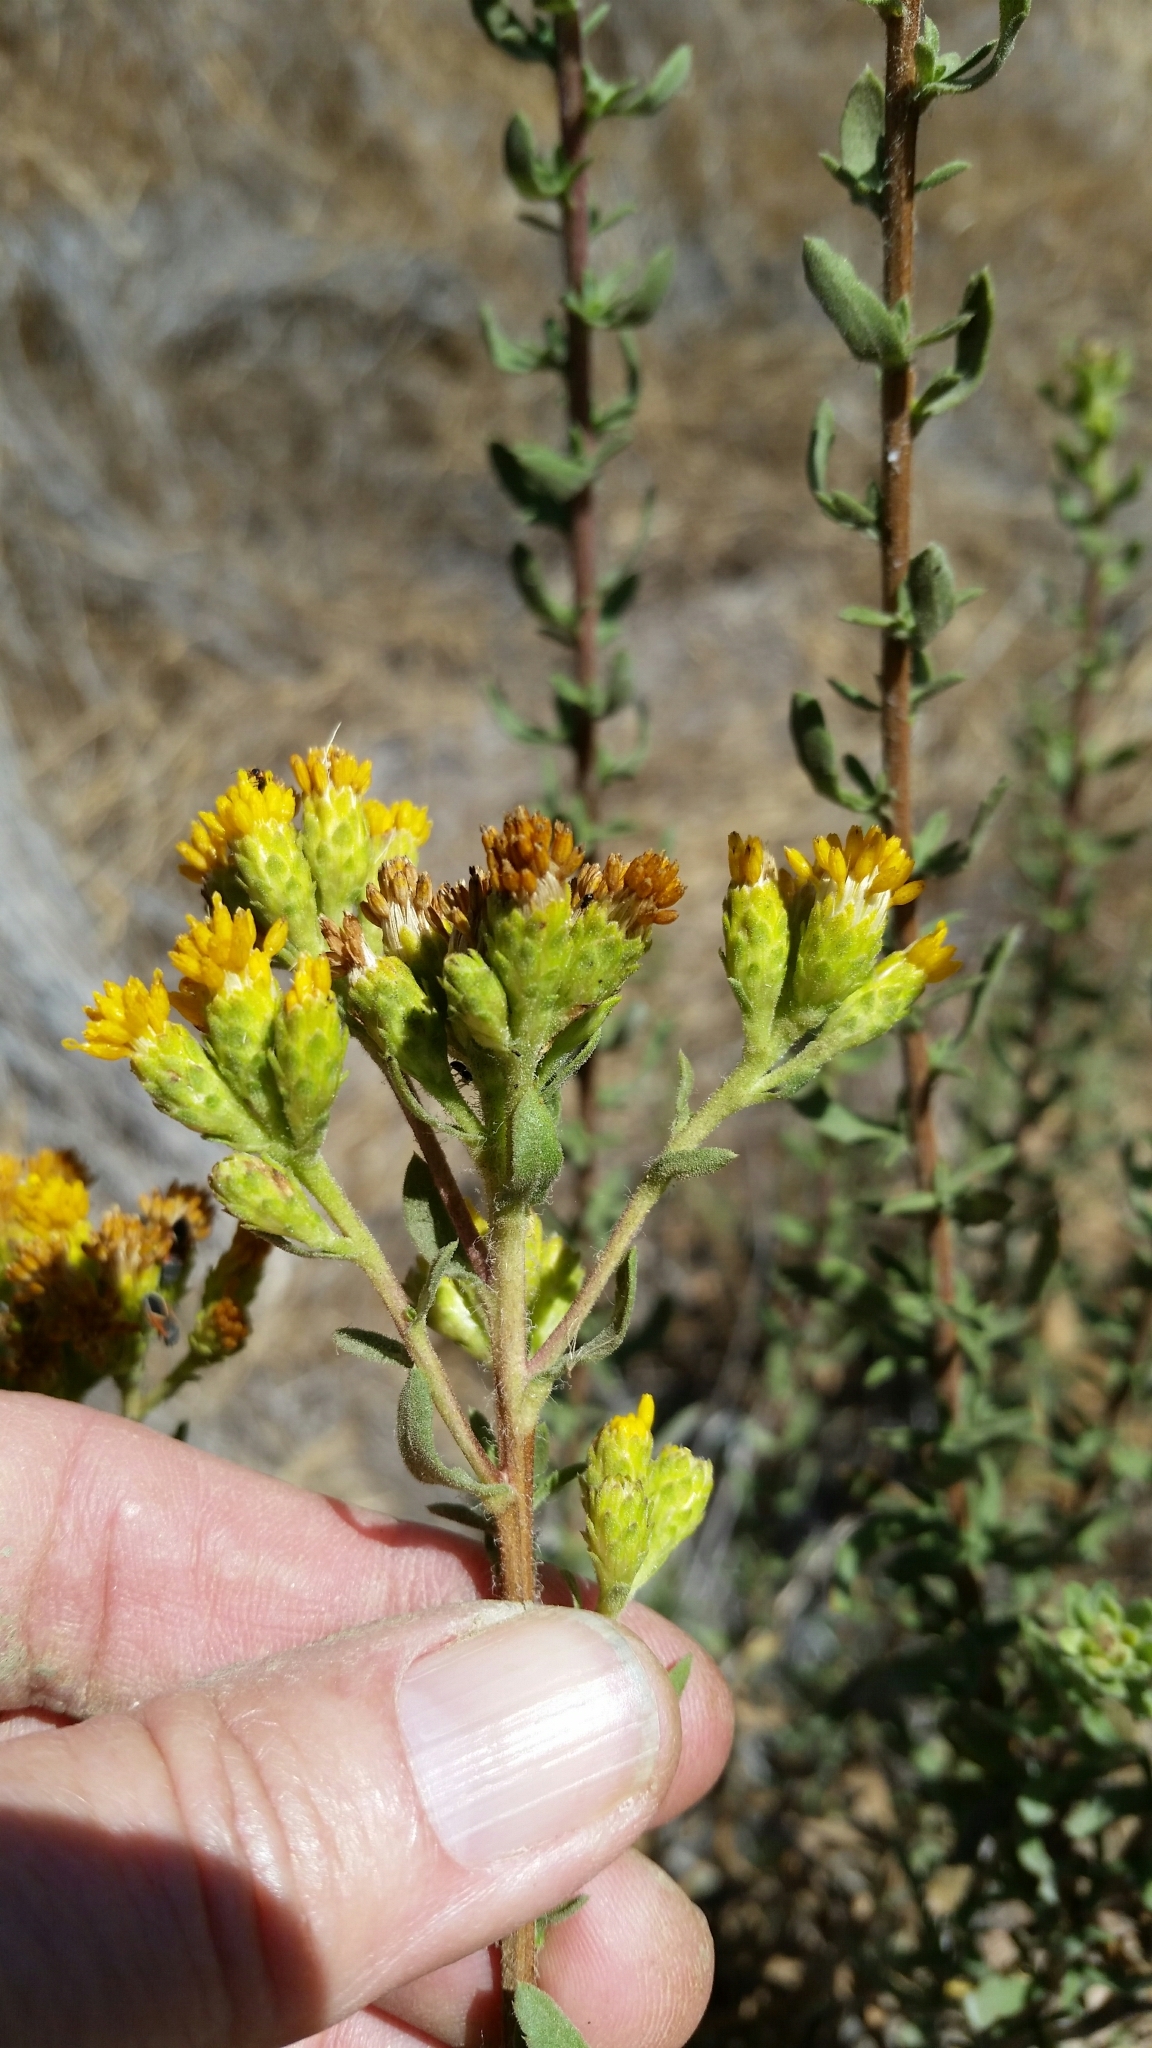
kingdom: Plantae
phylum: Tracheophyta
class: Magnoliopsida
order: Asterales
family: Asteraceae
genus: Isocoma
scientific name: Isocoma menziesii
